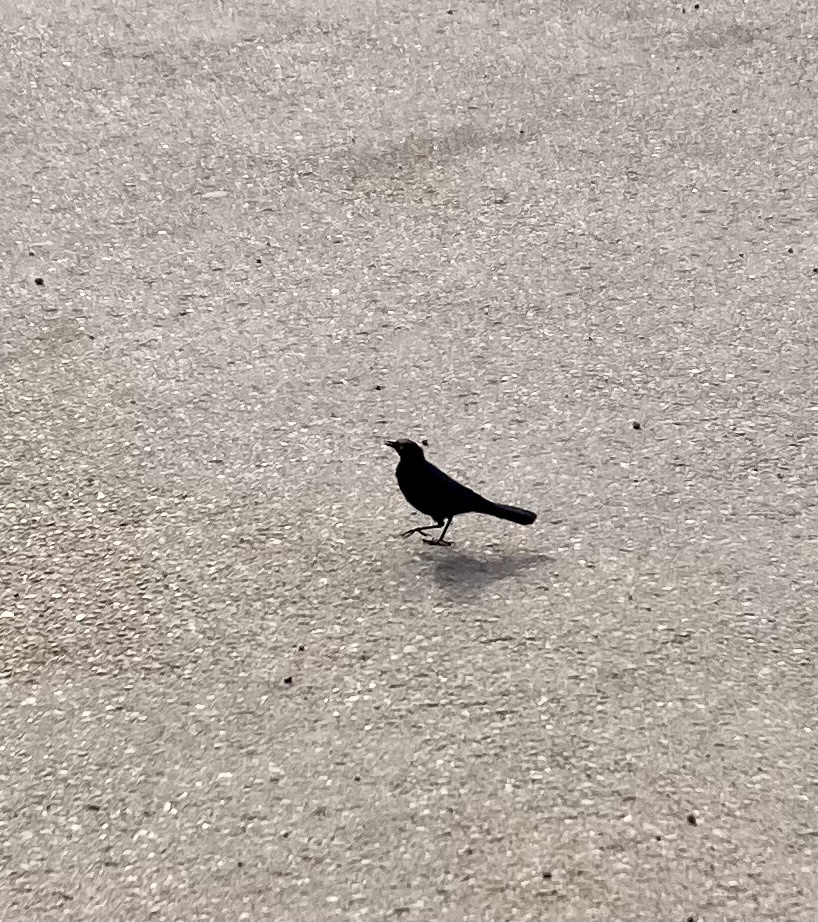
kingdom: Animalia
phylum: Chordata
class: Aves
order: Passeriformes
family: Icteridae
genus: Euphagus
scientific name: Euphagus cyanocephalus
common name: Brewer's blackbird
